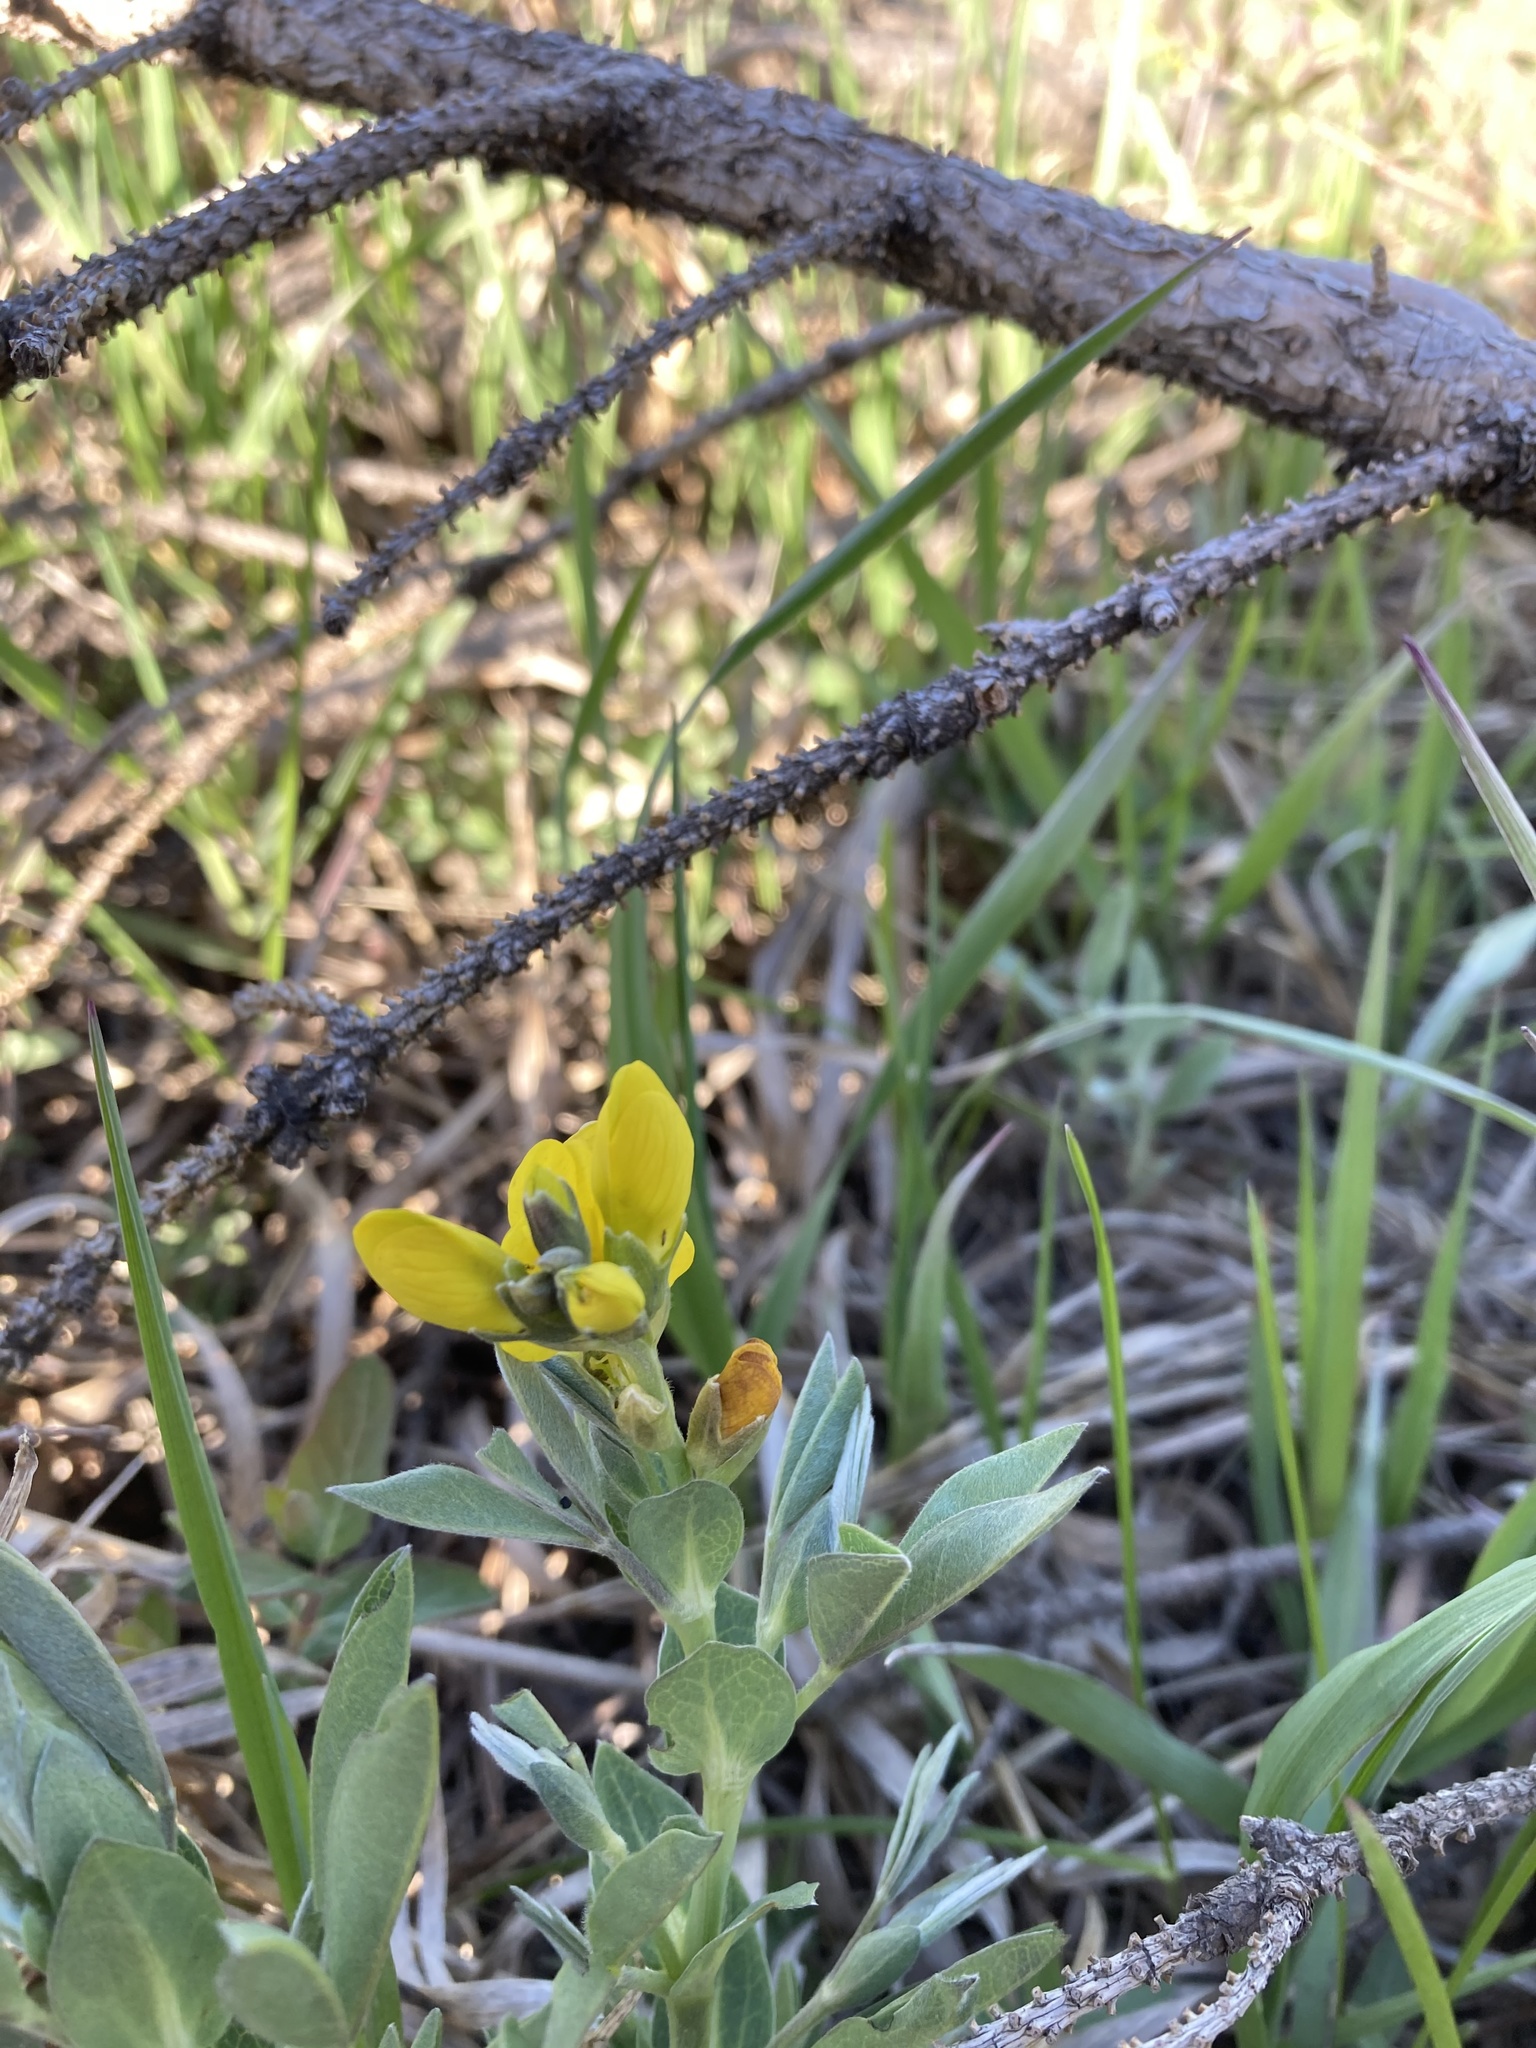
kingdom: Plantae
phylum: Tracheophyta
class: Magnoliopsida
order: Fabales
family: Fabaceae
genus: Thermopsis
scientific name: Thermopsis rhombifolia
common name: Circle-pod-pea
